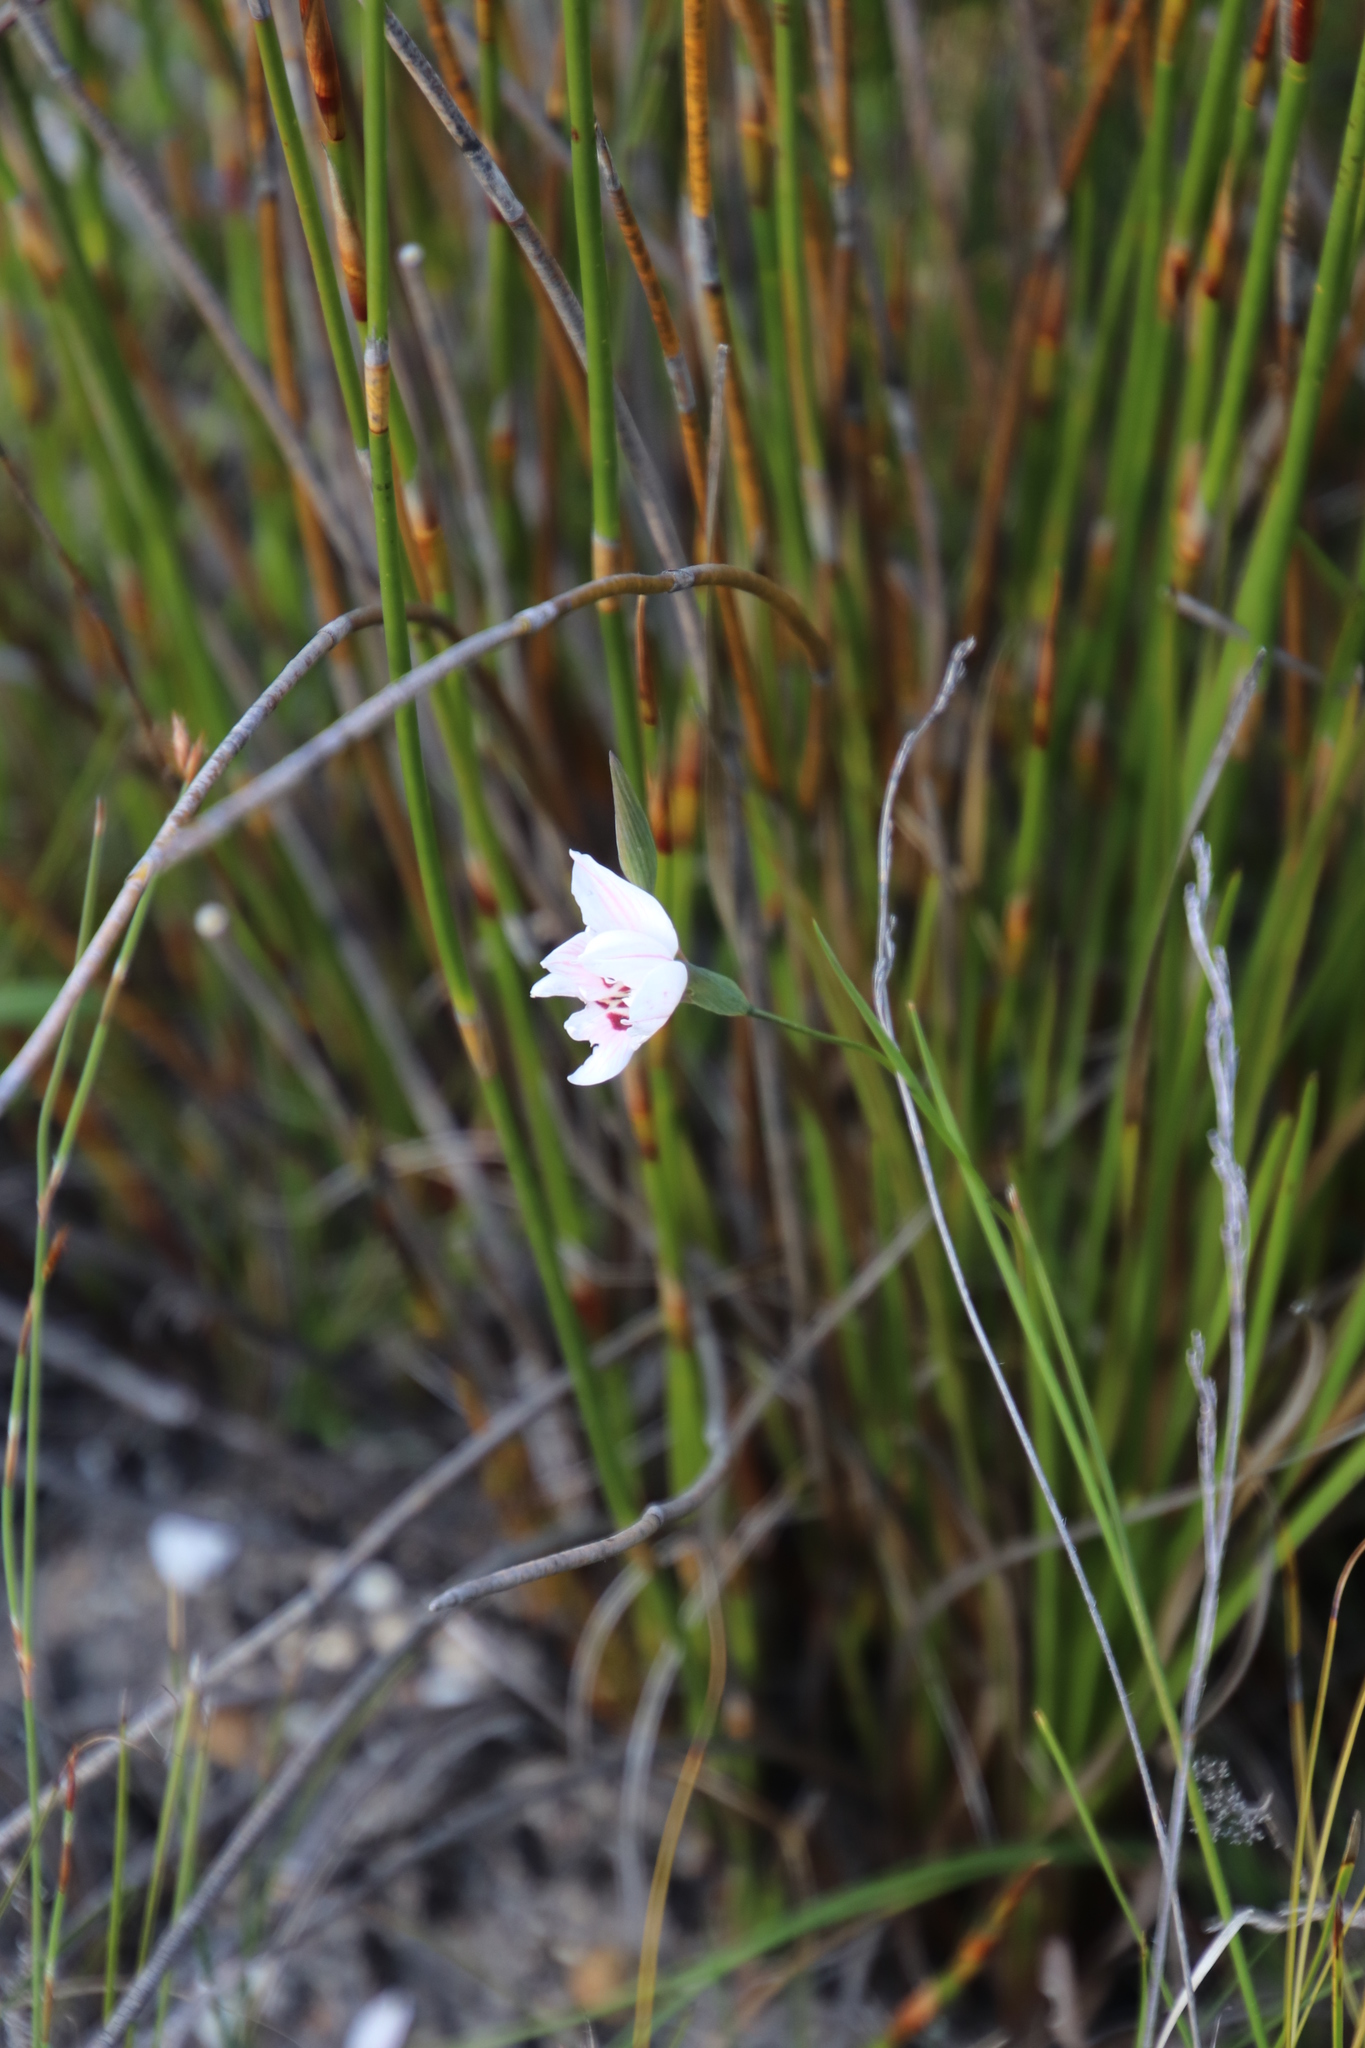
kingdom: Plantae
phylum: Tracheophyta
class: Liliopsida
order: Asparagales
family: Iridaceae
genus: Gladiolus
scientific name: Gladiolus debilis
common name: Painted-lady
